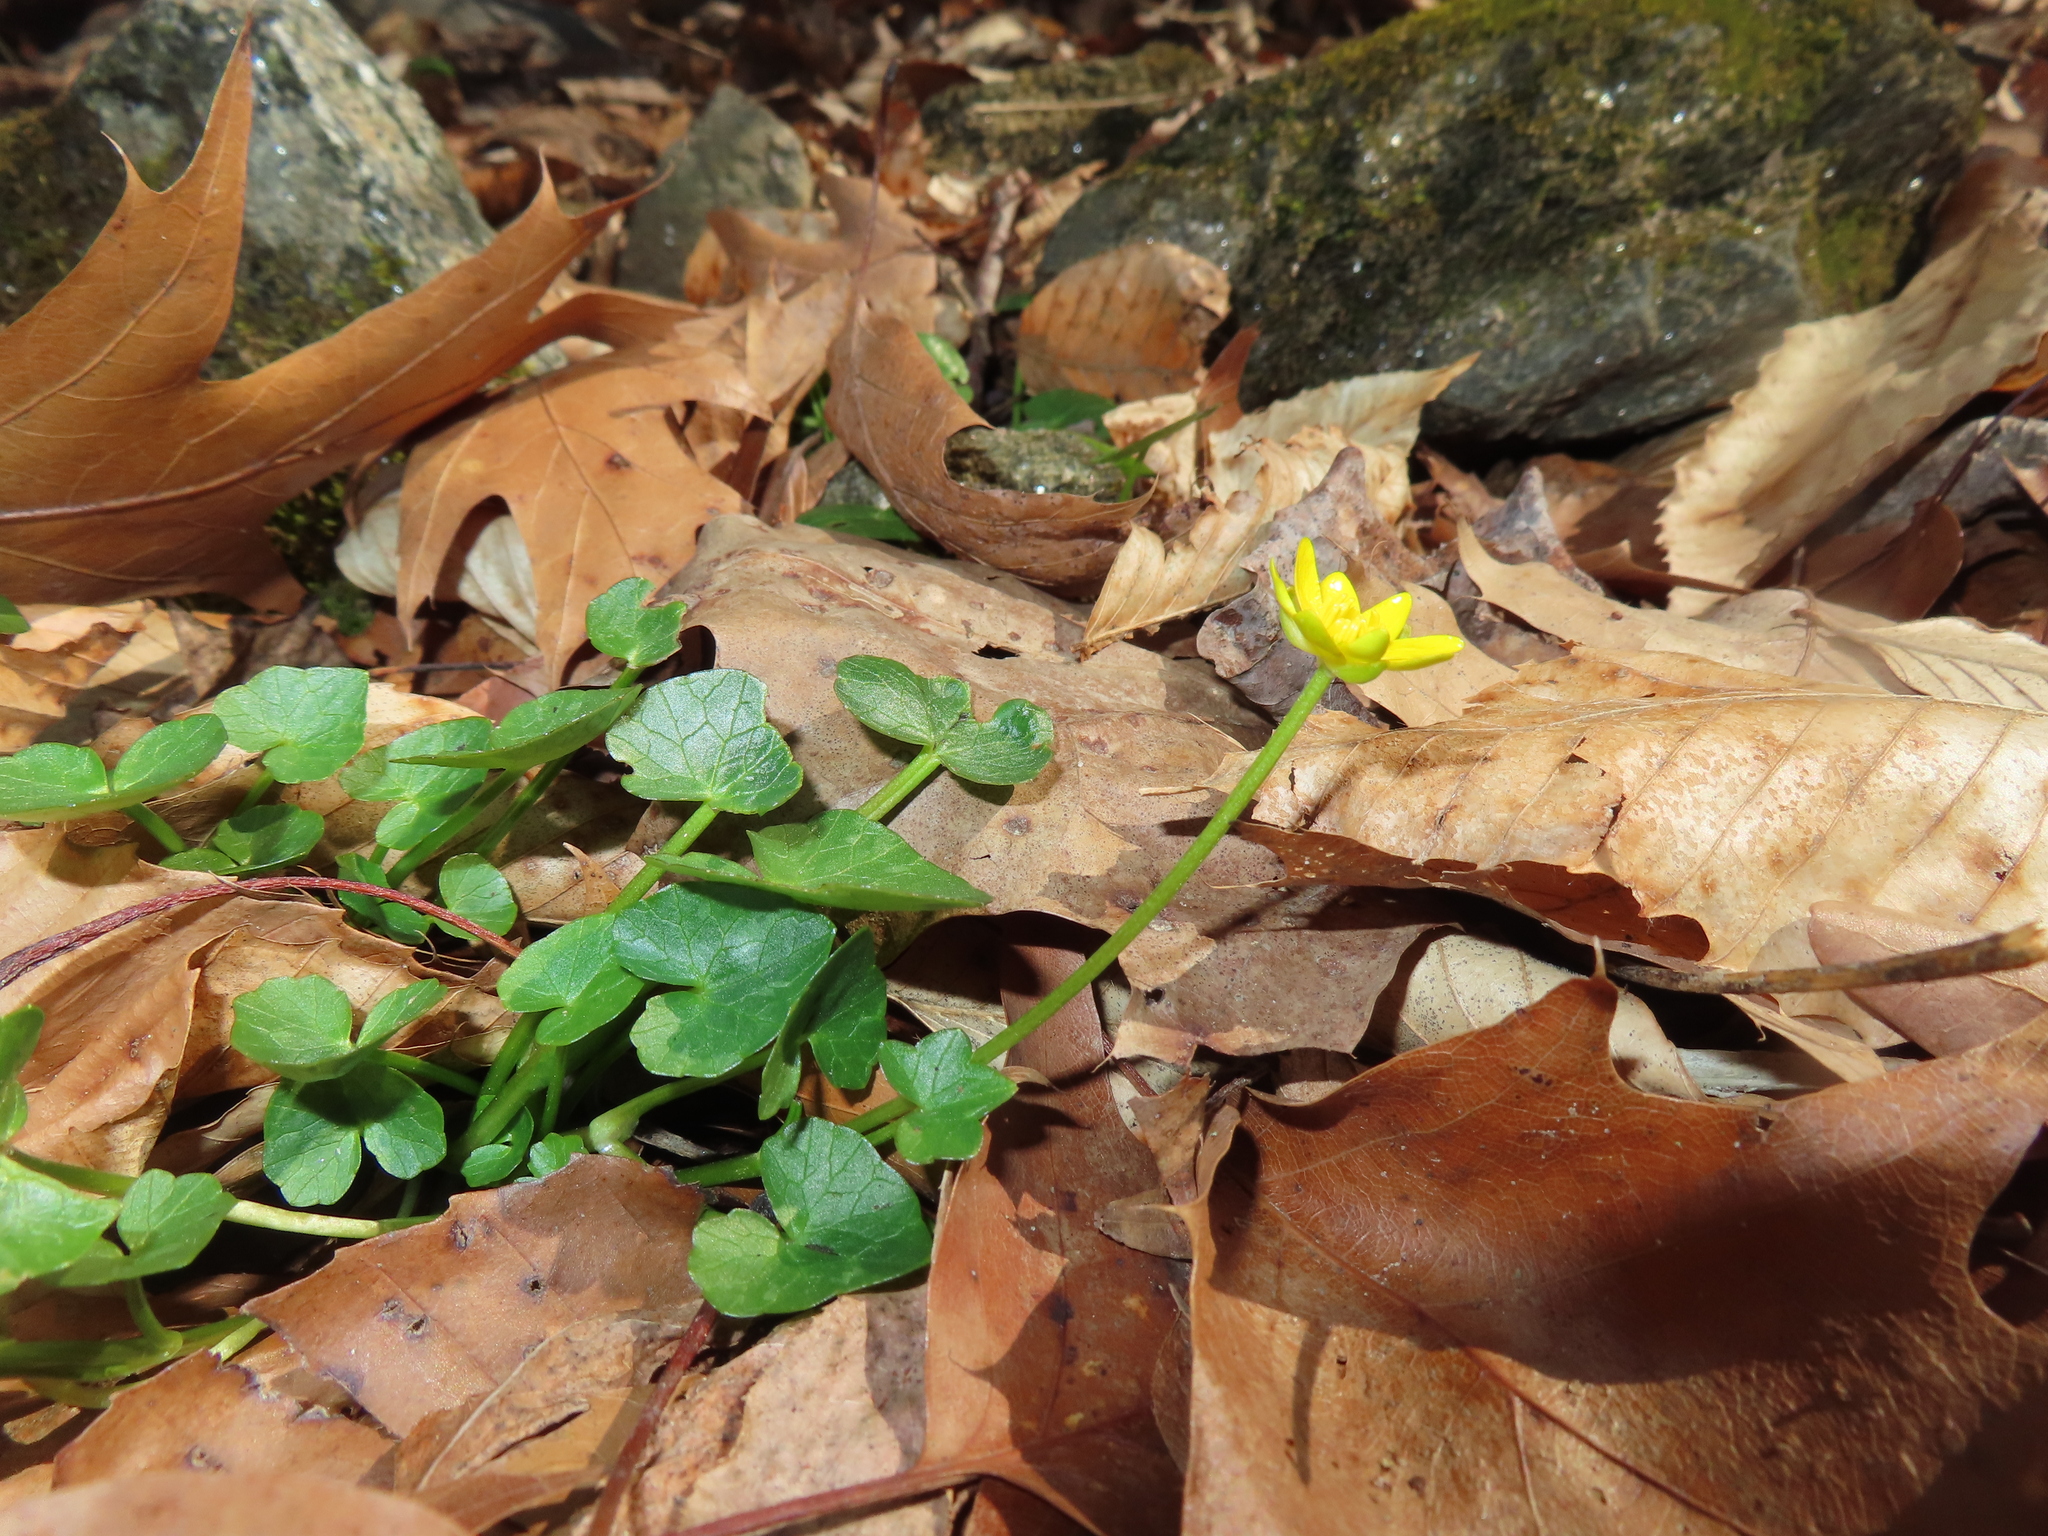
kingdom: Plantae
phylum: Tracheophyta
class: Magnoliopsida
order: Ranunculales
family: Ranunculaceae
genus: Ficaria
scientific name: Ficaria verna
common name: Lesser celandine
